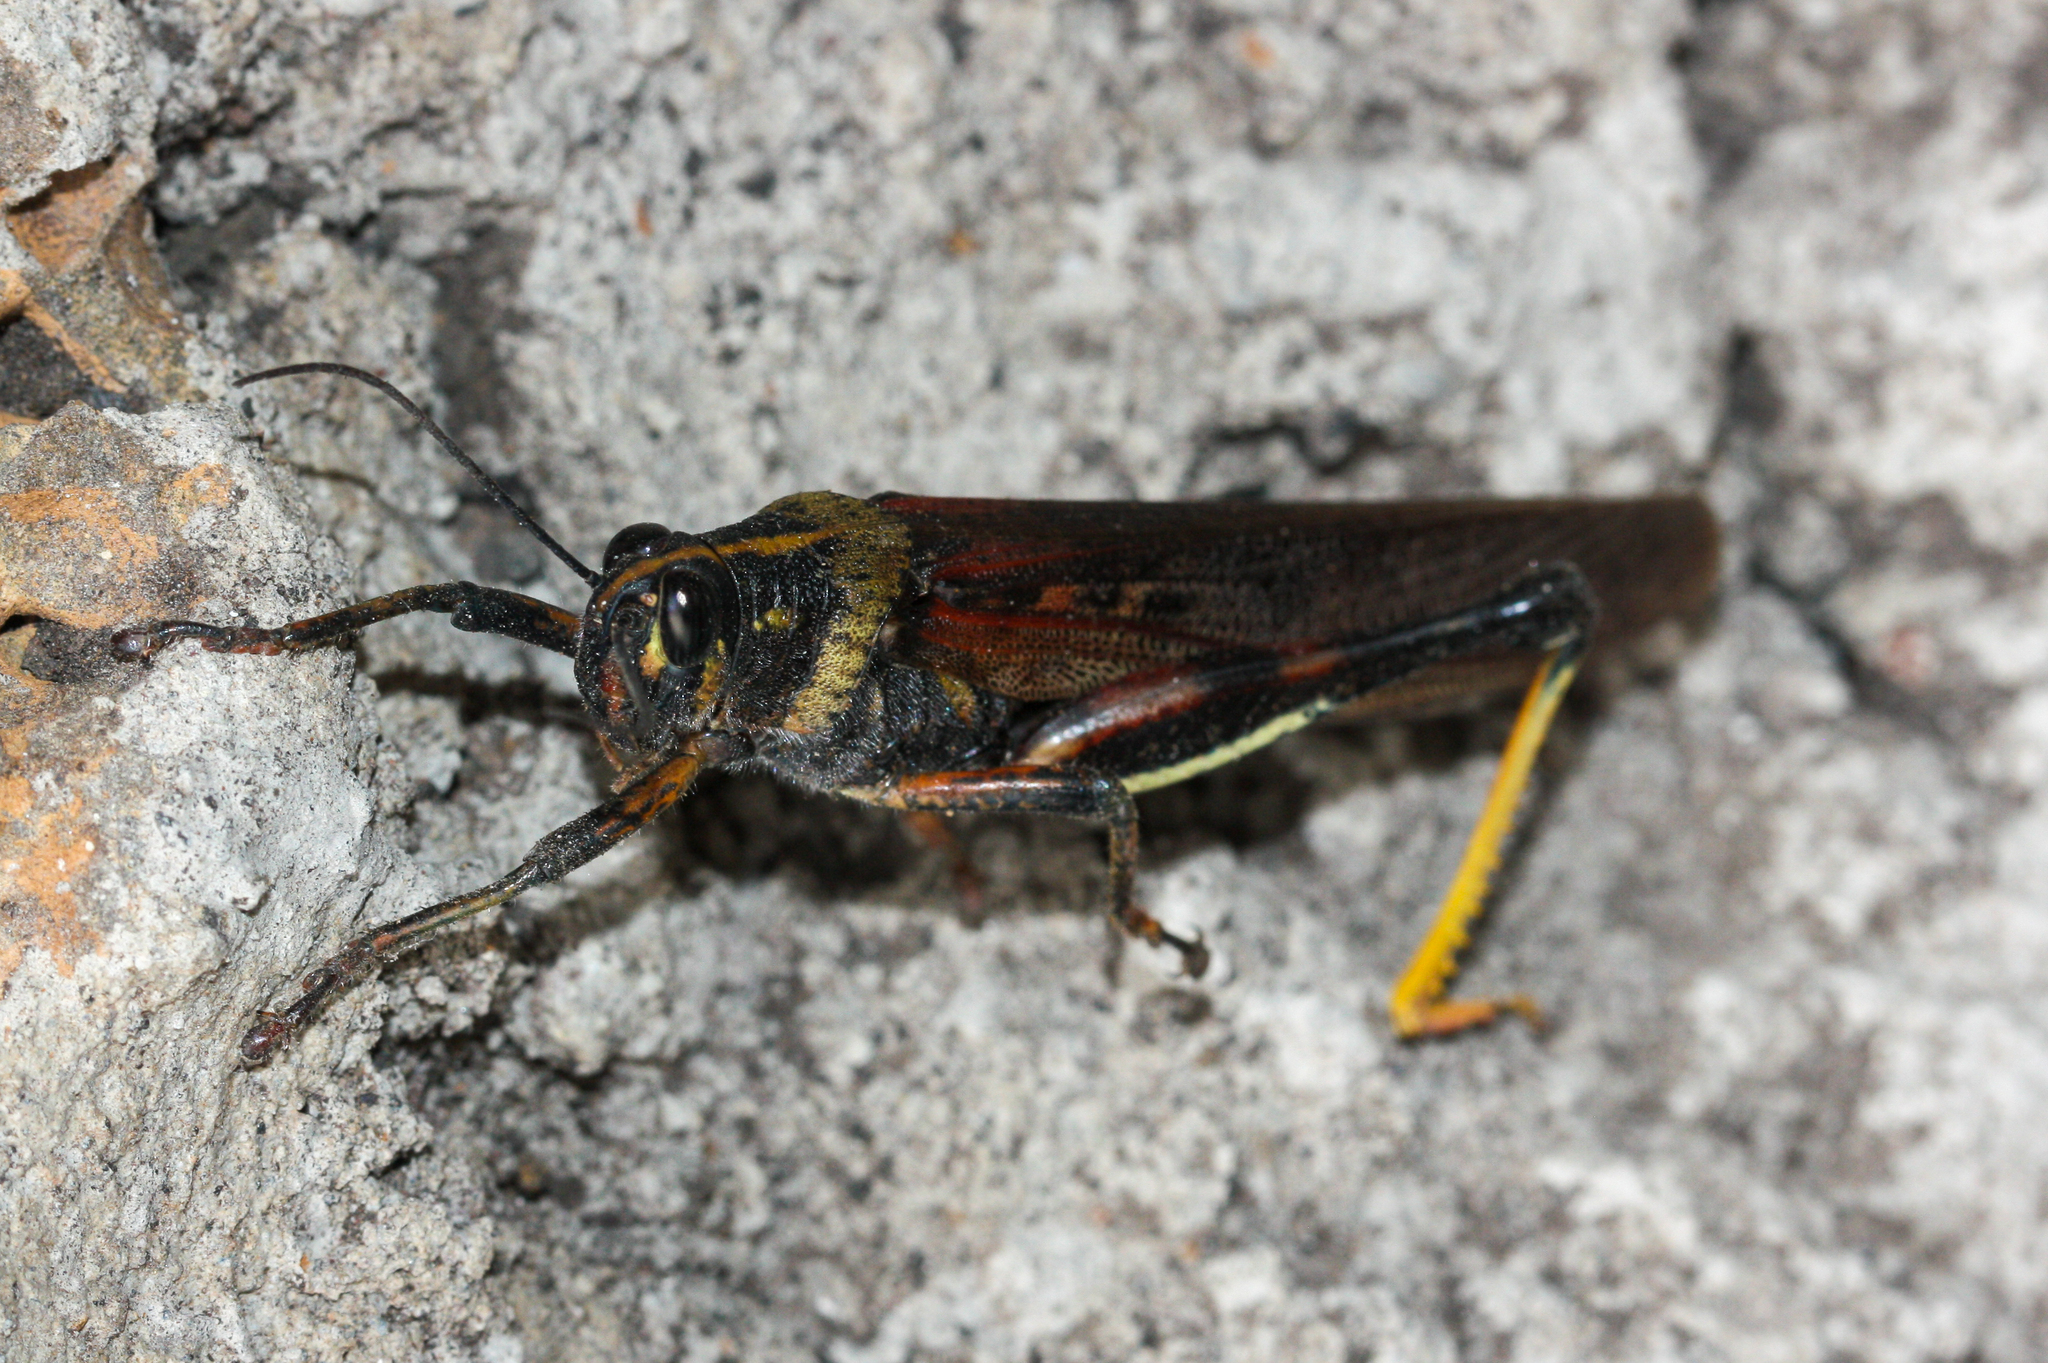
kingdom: Animalia
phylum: Arthropoda
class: Insecta
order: Orthoptera
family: Acrididae
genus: Schistocerca
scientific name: Schistocerca melanocera
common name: Large painted locust
